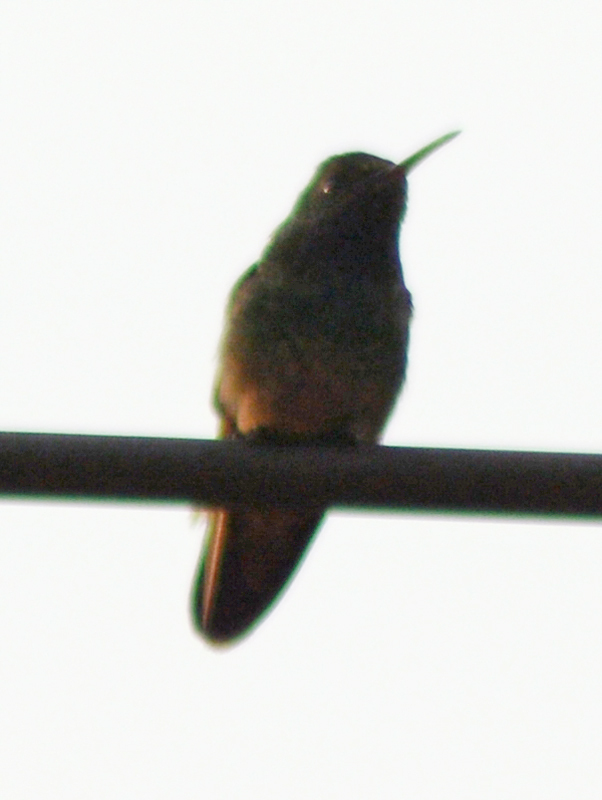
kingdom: Animalia
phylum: Chordata
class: Aves
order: Apodiformes
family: Trochilidae
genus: Saucerottia
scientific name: Saucerottia beryllina
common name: Berylline hummingbird
